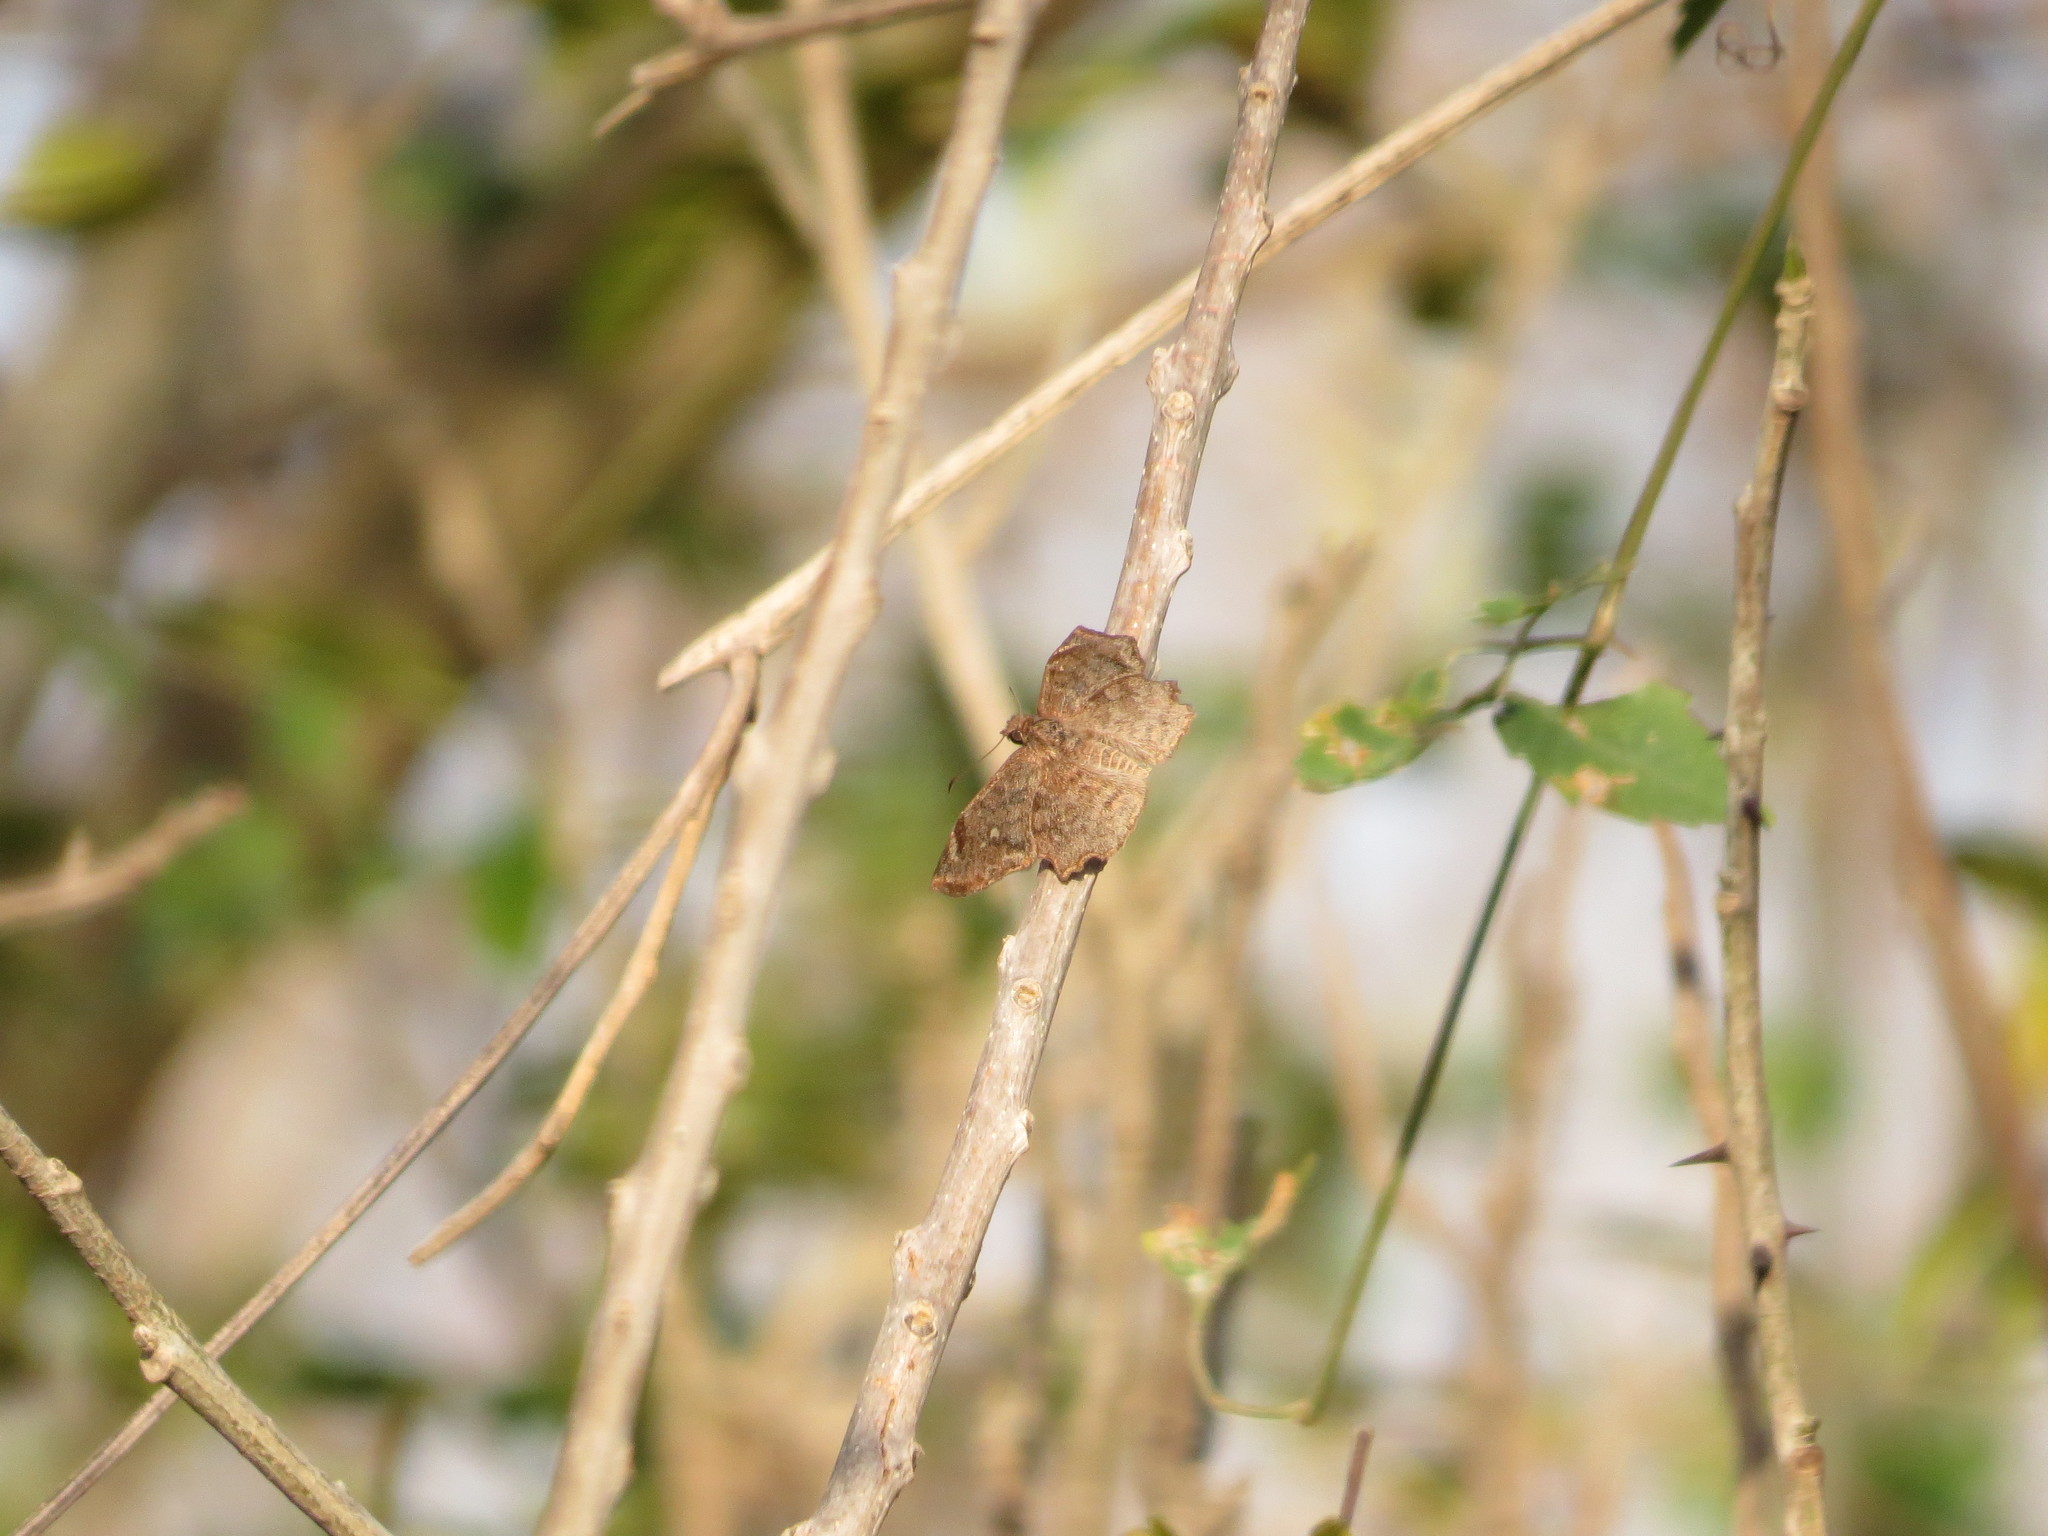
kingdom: Animalia
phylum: Arthropoda
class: Insecta
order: Lepidoptera
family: Hesperiidae
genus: Antigonus
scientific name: Antigonus erosus
